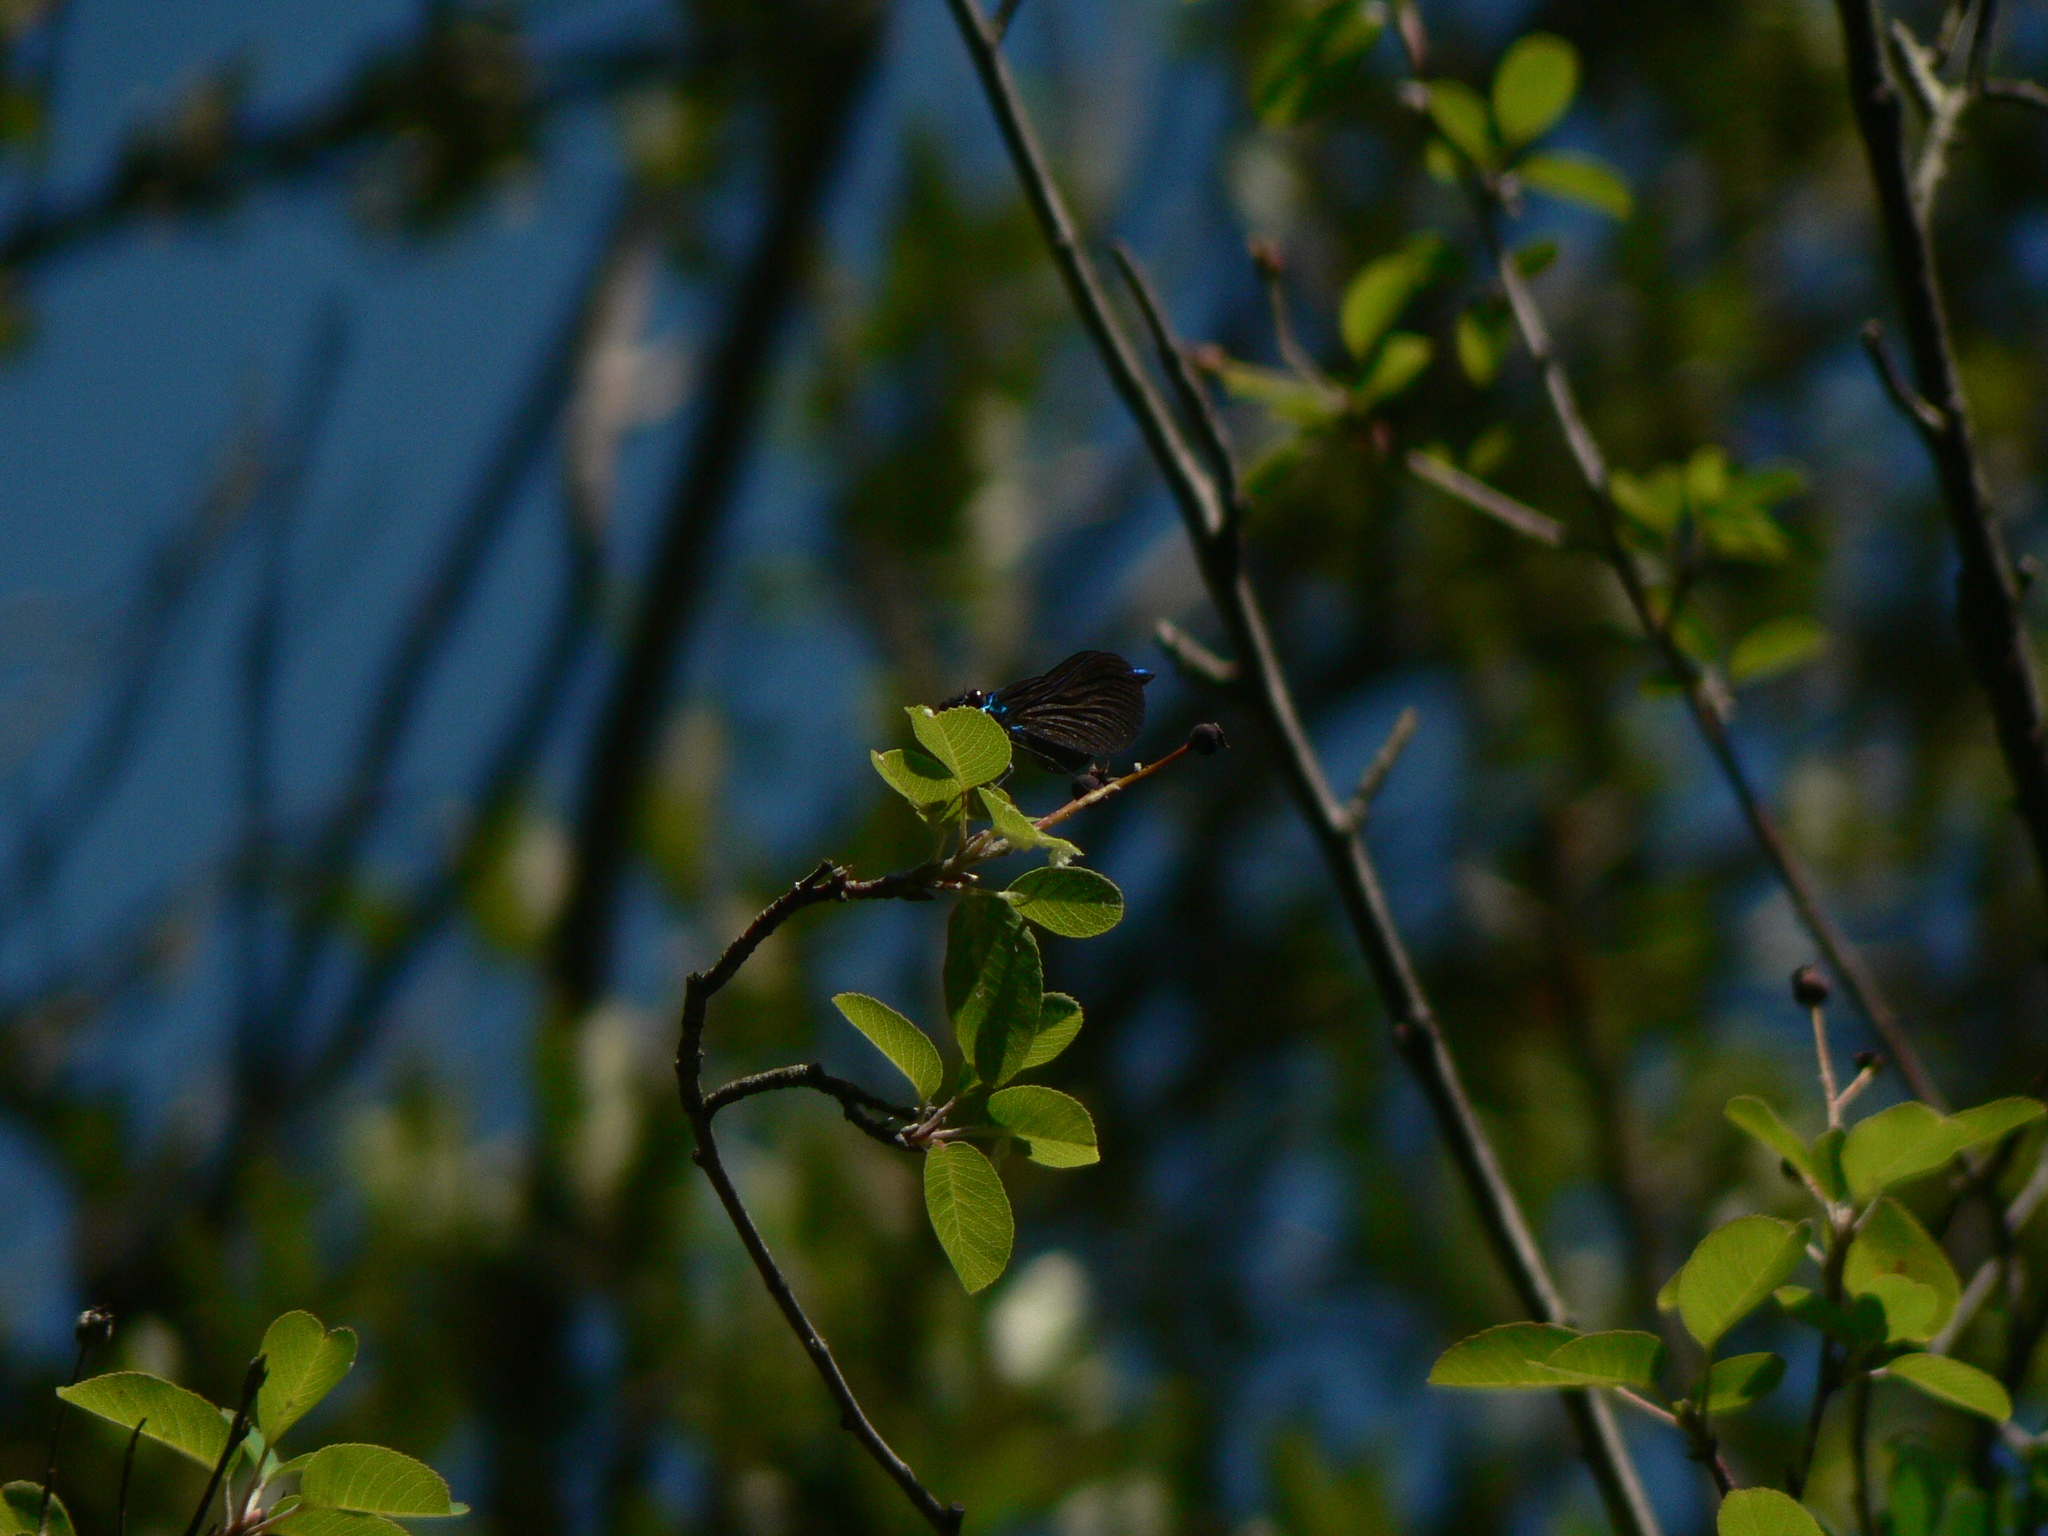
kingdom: Animalia
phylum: Arthropoda
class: Insecta
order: Odonata
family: Calopterygidae
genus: Calopteryx
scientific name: Calopteryx virgo
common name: Beautiful demoiselle
